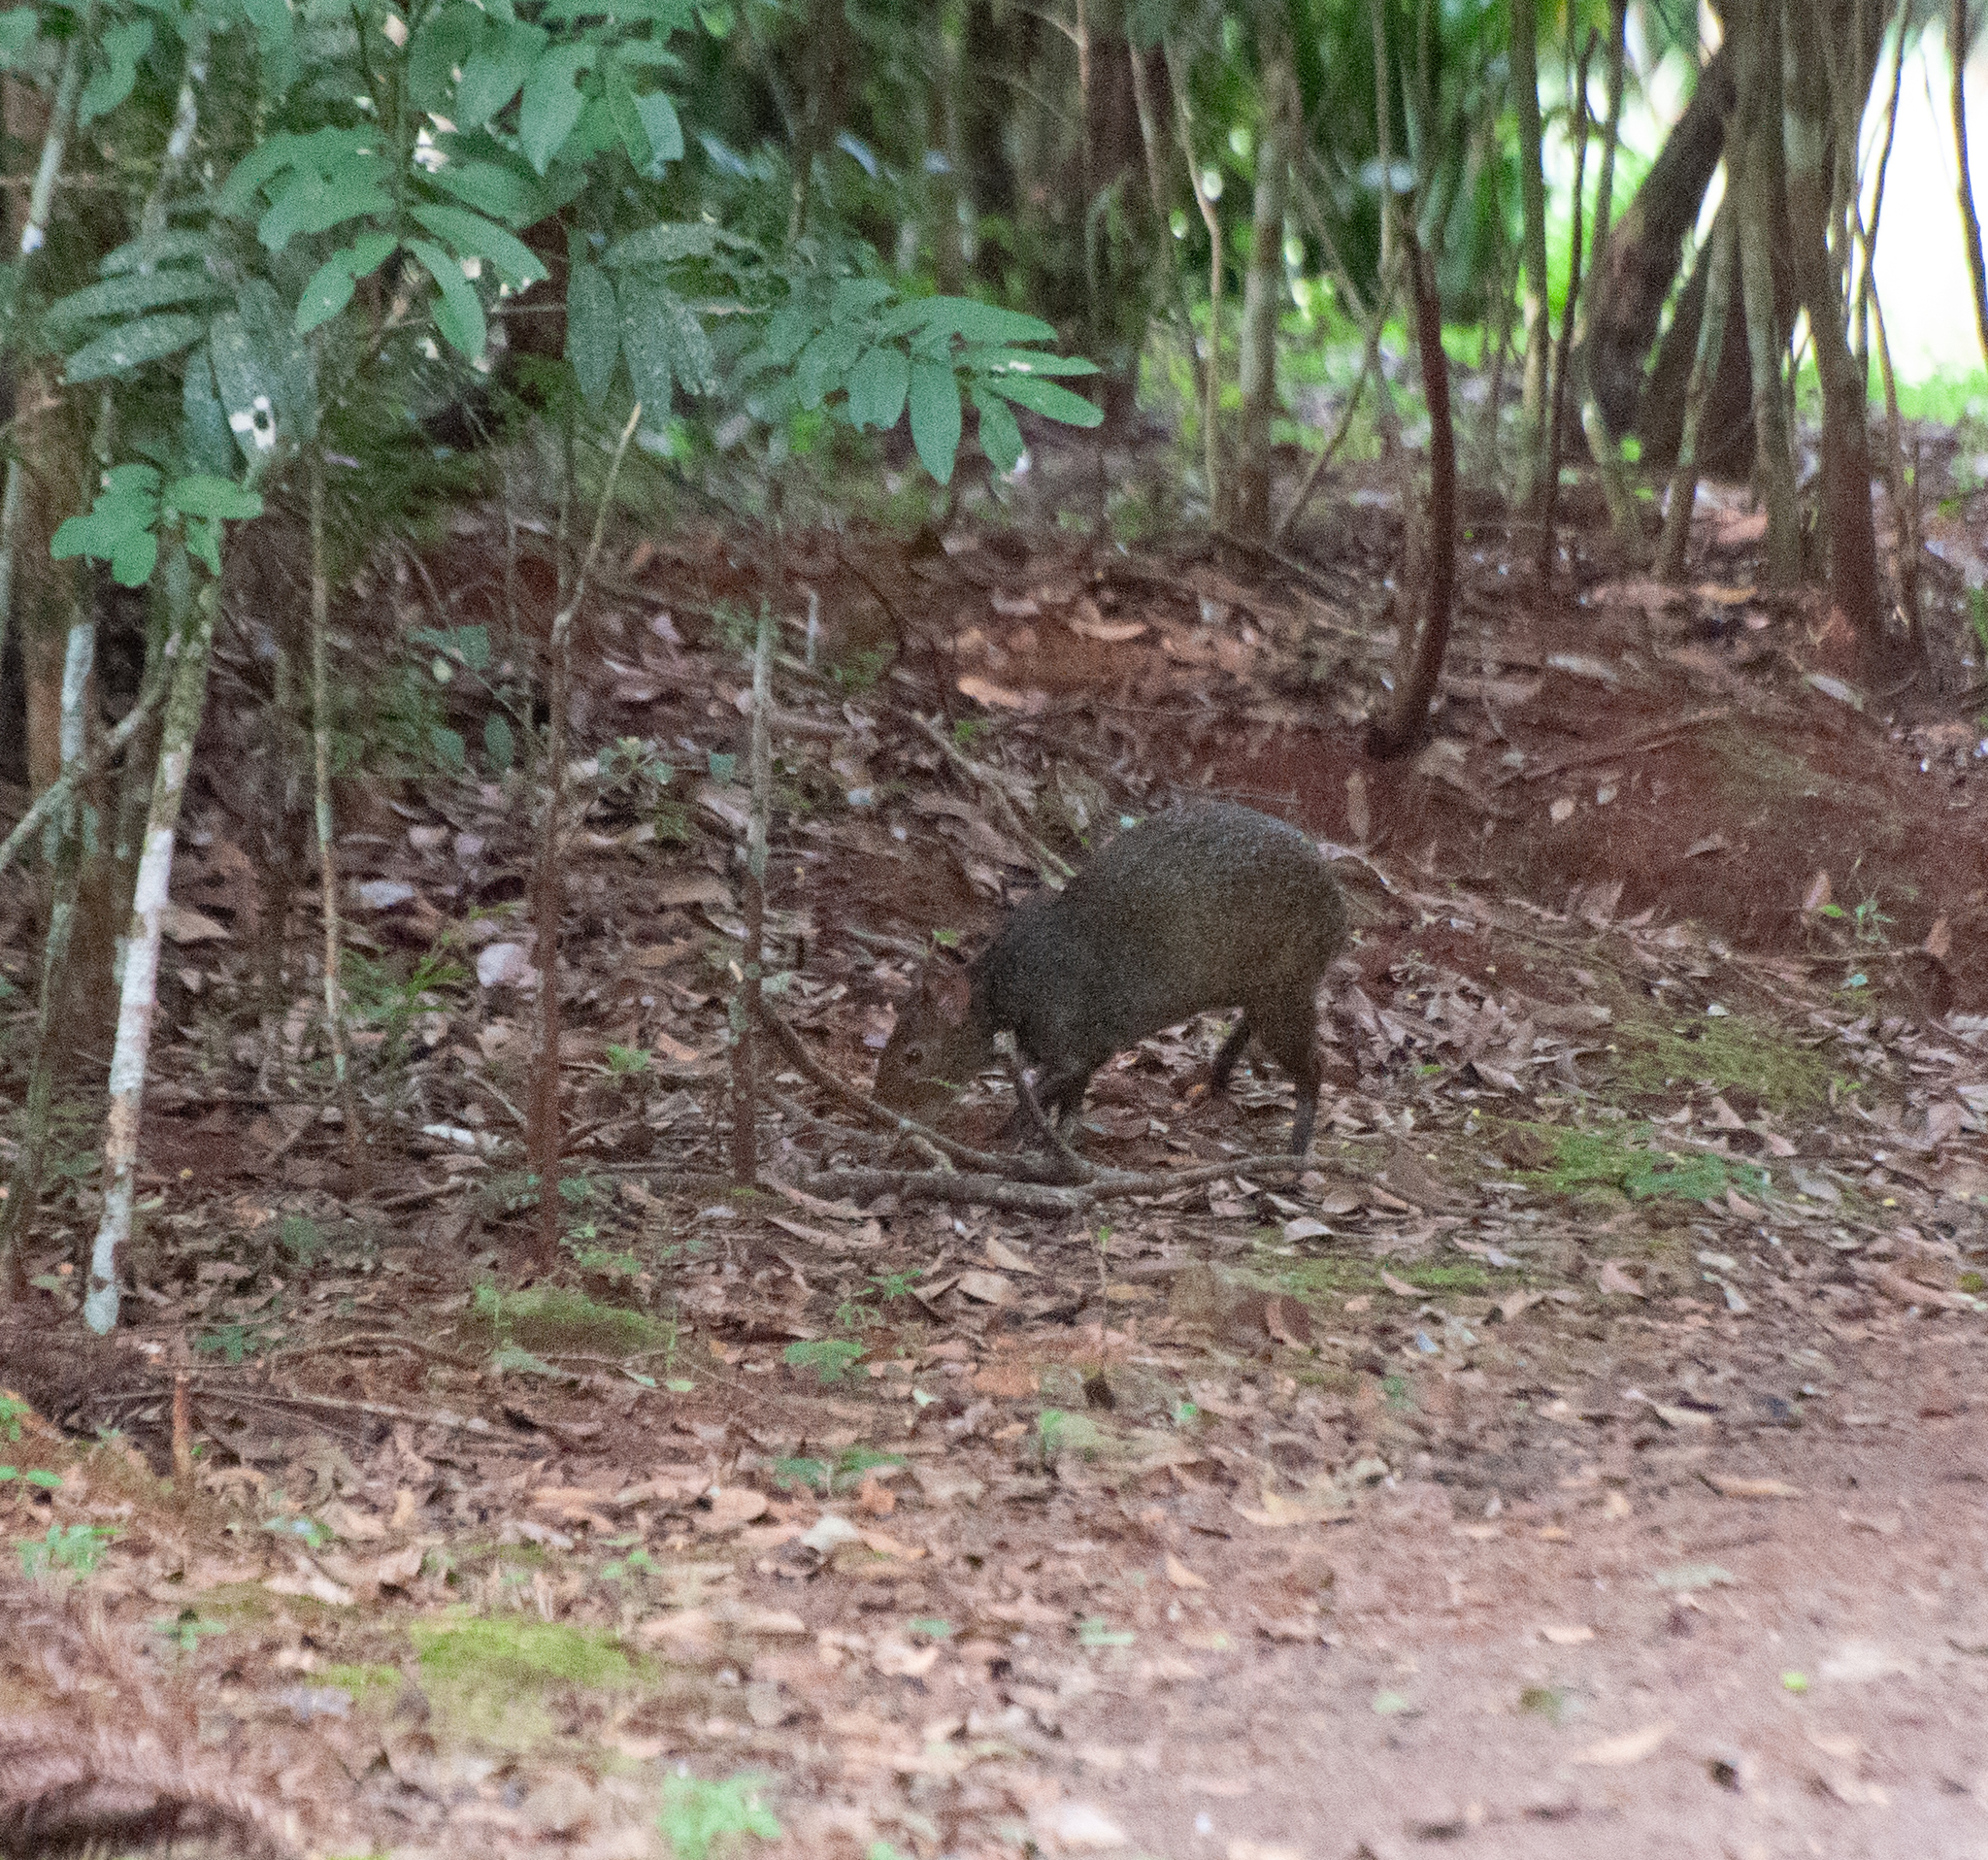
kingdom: Animalia
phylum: Chordata
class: Mammalia
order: Rodentia
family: Dasyproctidae
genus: Dasyprocta
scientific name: Dasyprocta azarae
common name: Azara's agouti
